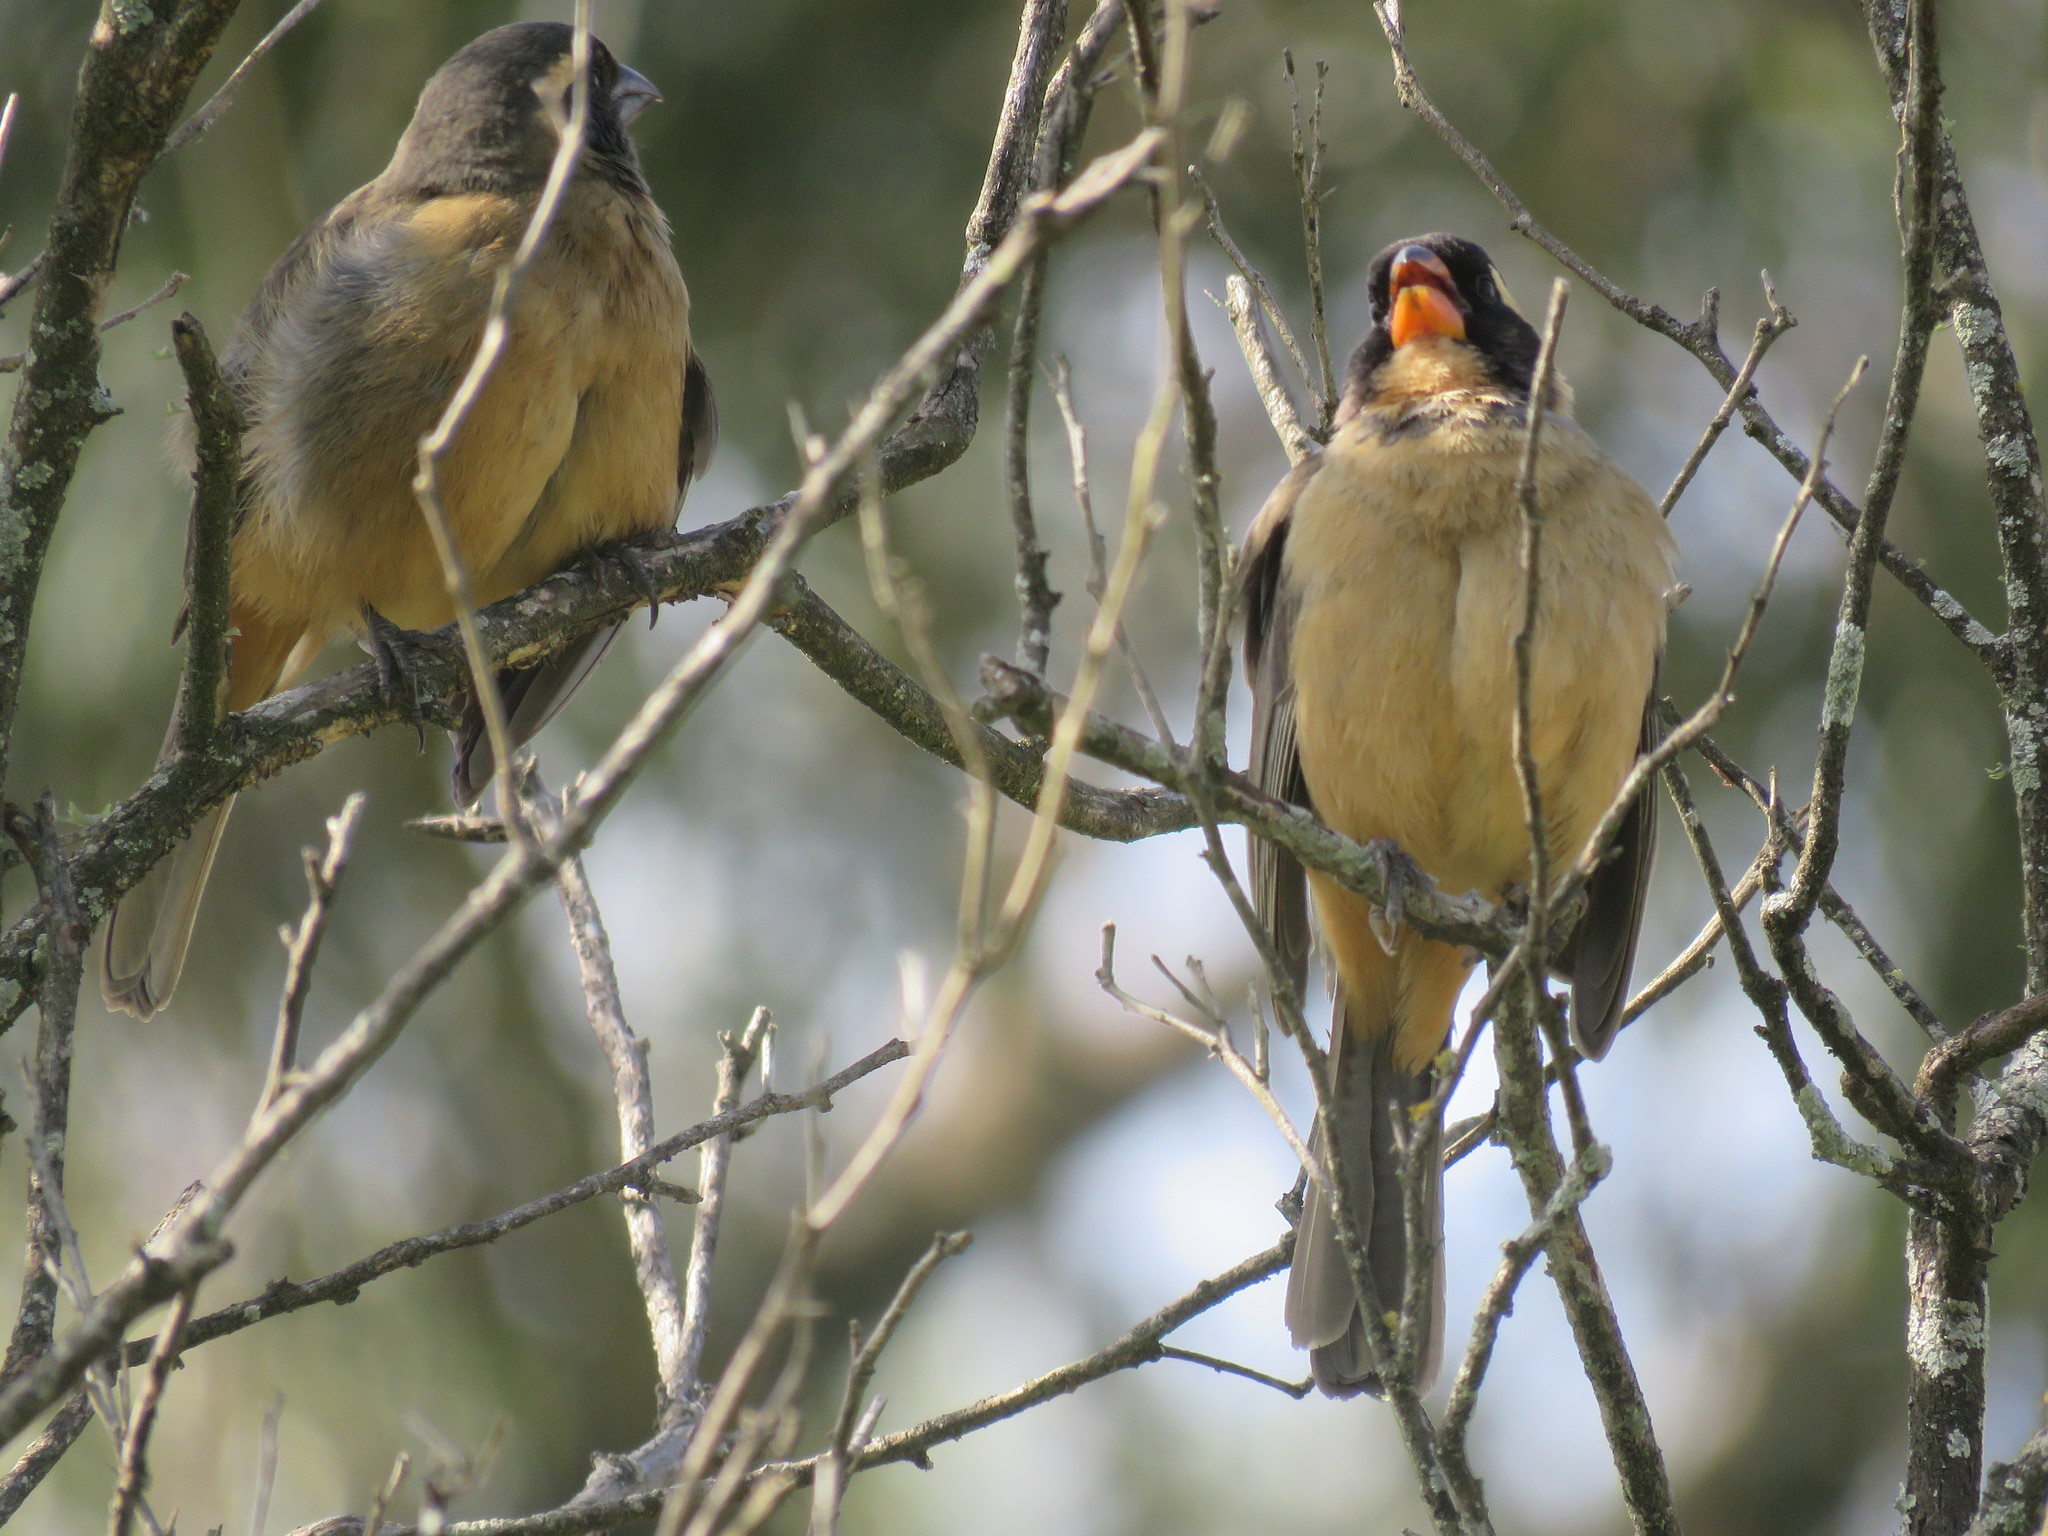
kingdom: Animalia
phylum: Chordata
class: Aves
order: Passeriformes
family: Thraupidae
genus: Saltator
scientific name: Saltator aurantiirostris
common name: Golden-billed saltator
